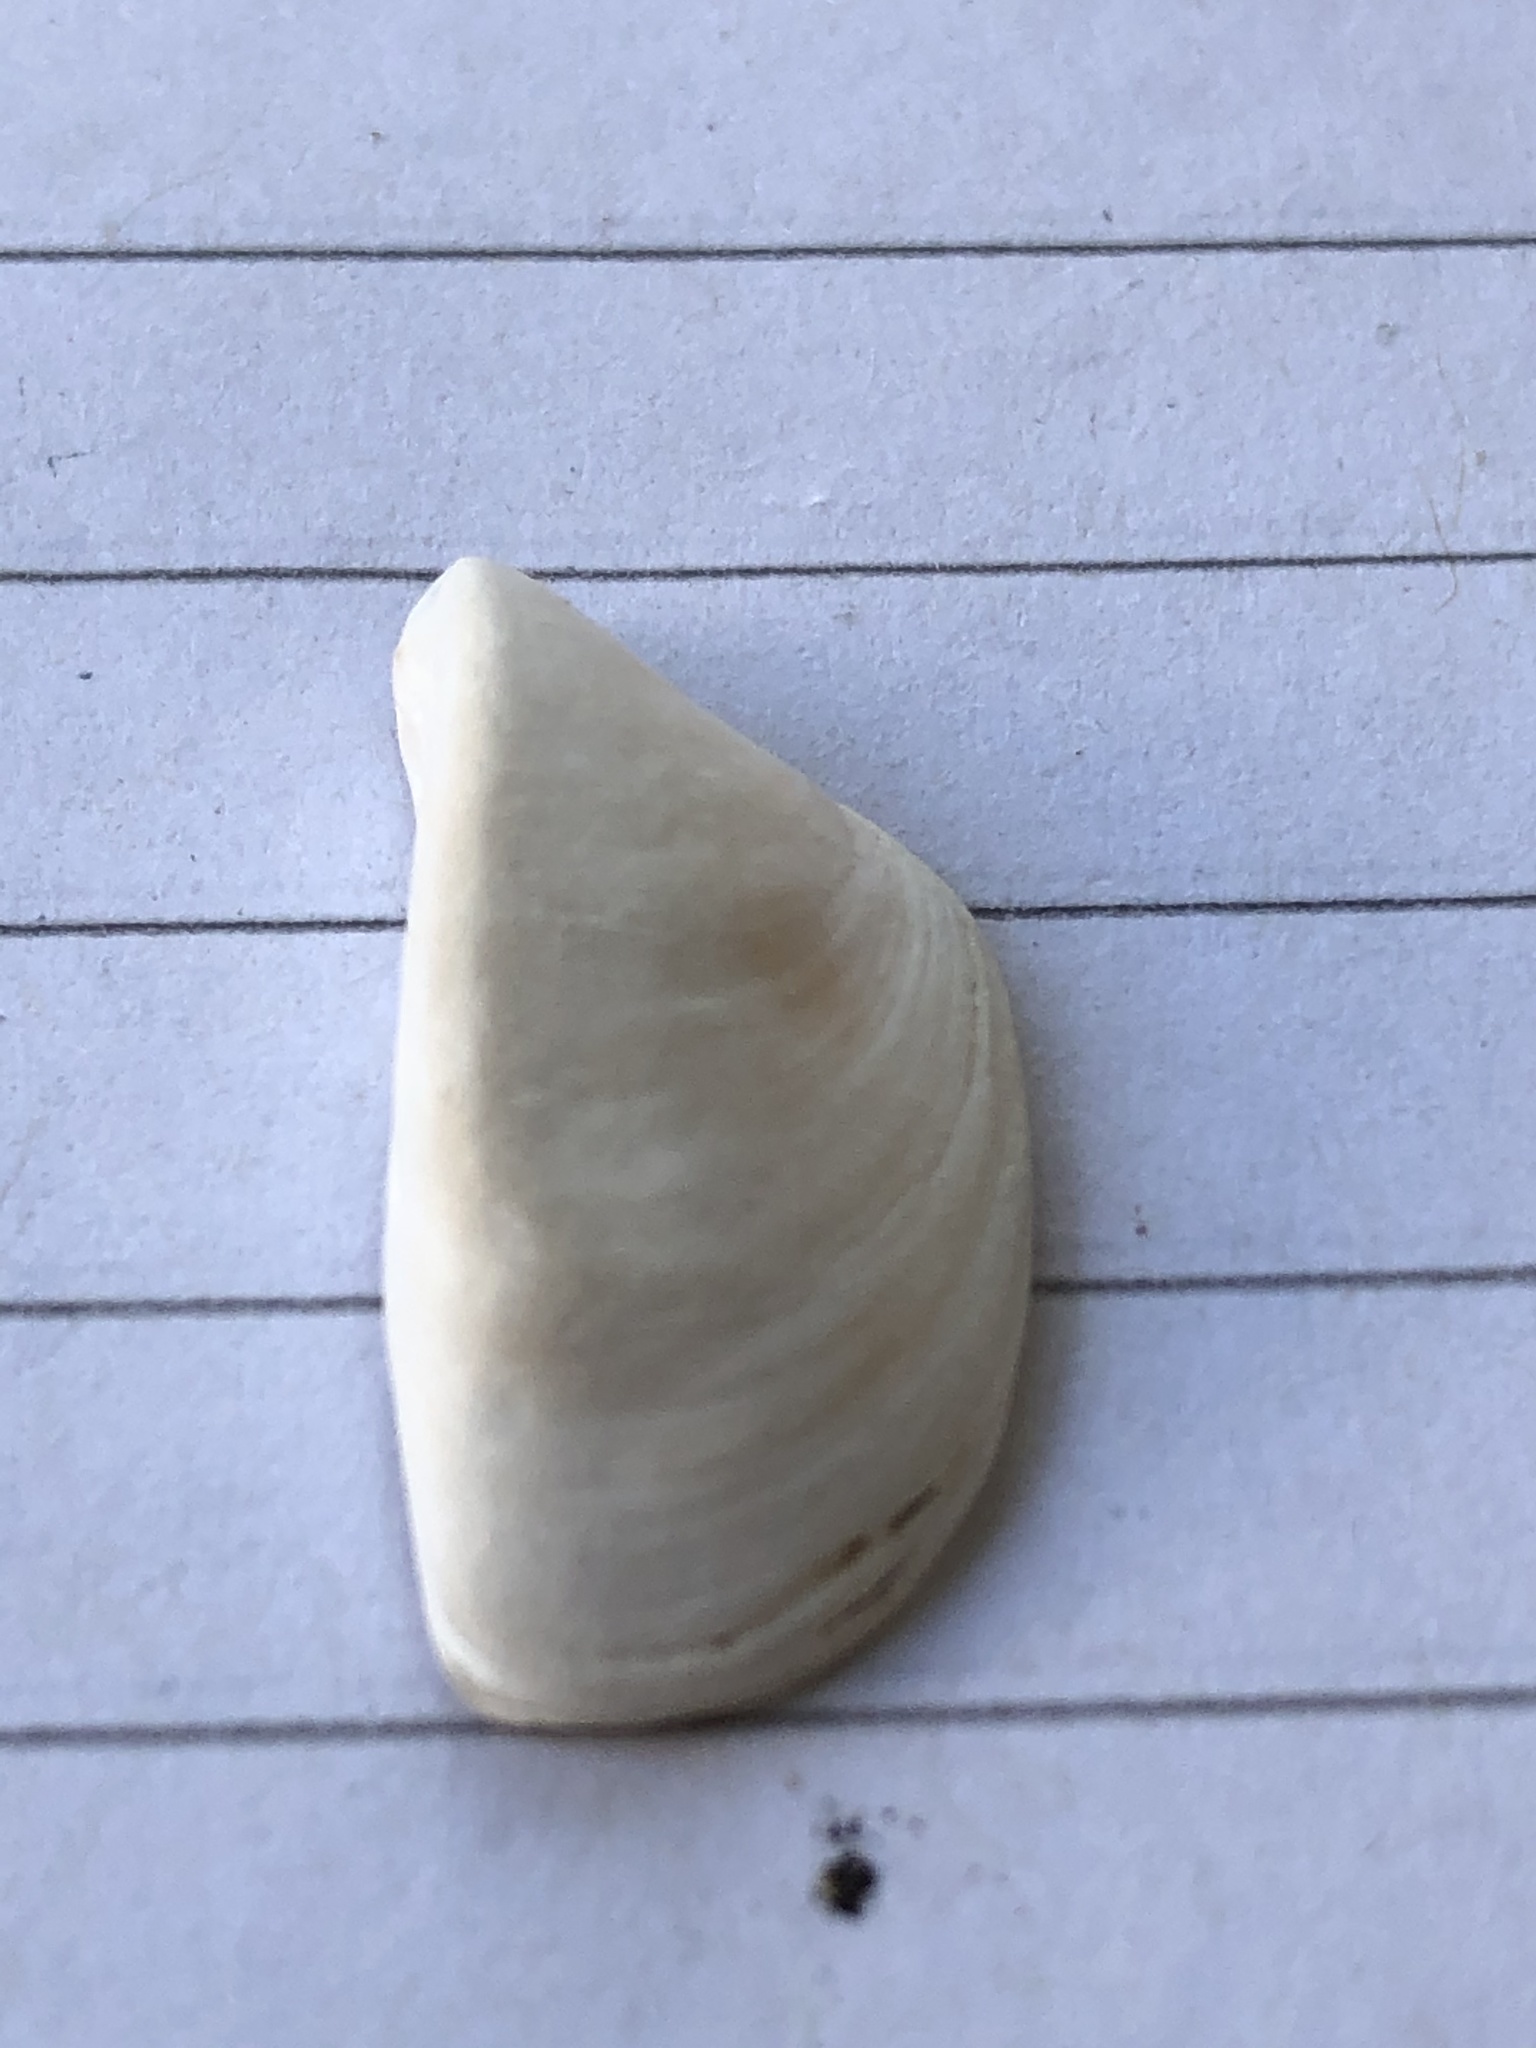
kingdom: Animalia
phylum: Mollusca
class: Bivalvia
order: Myida
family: Dreissenidae
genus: Dreissena
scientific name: Dreissena polymorpha
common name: Zebra mussel
